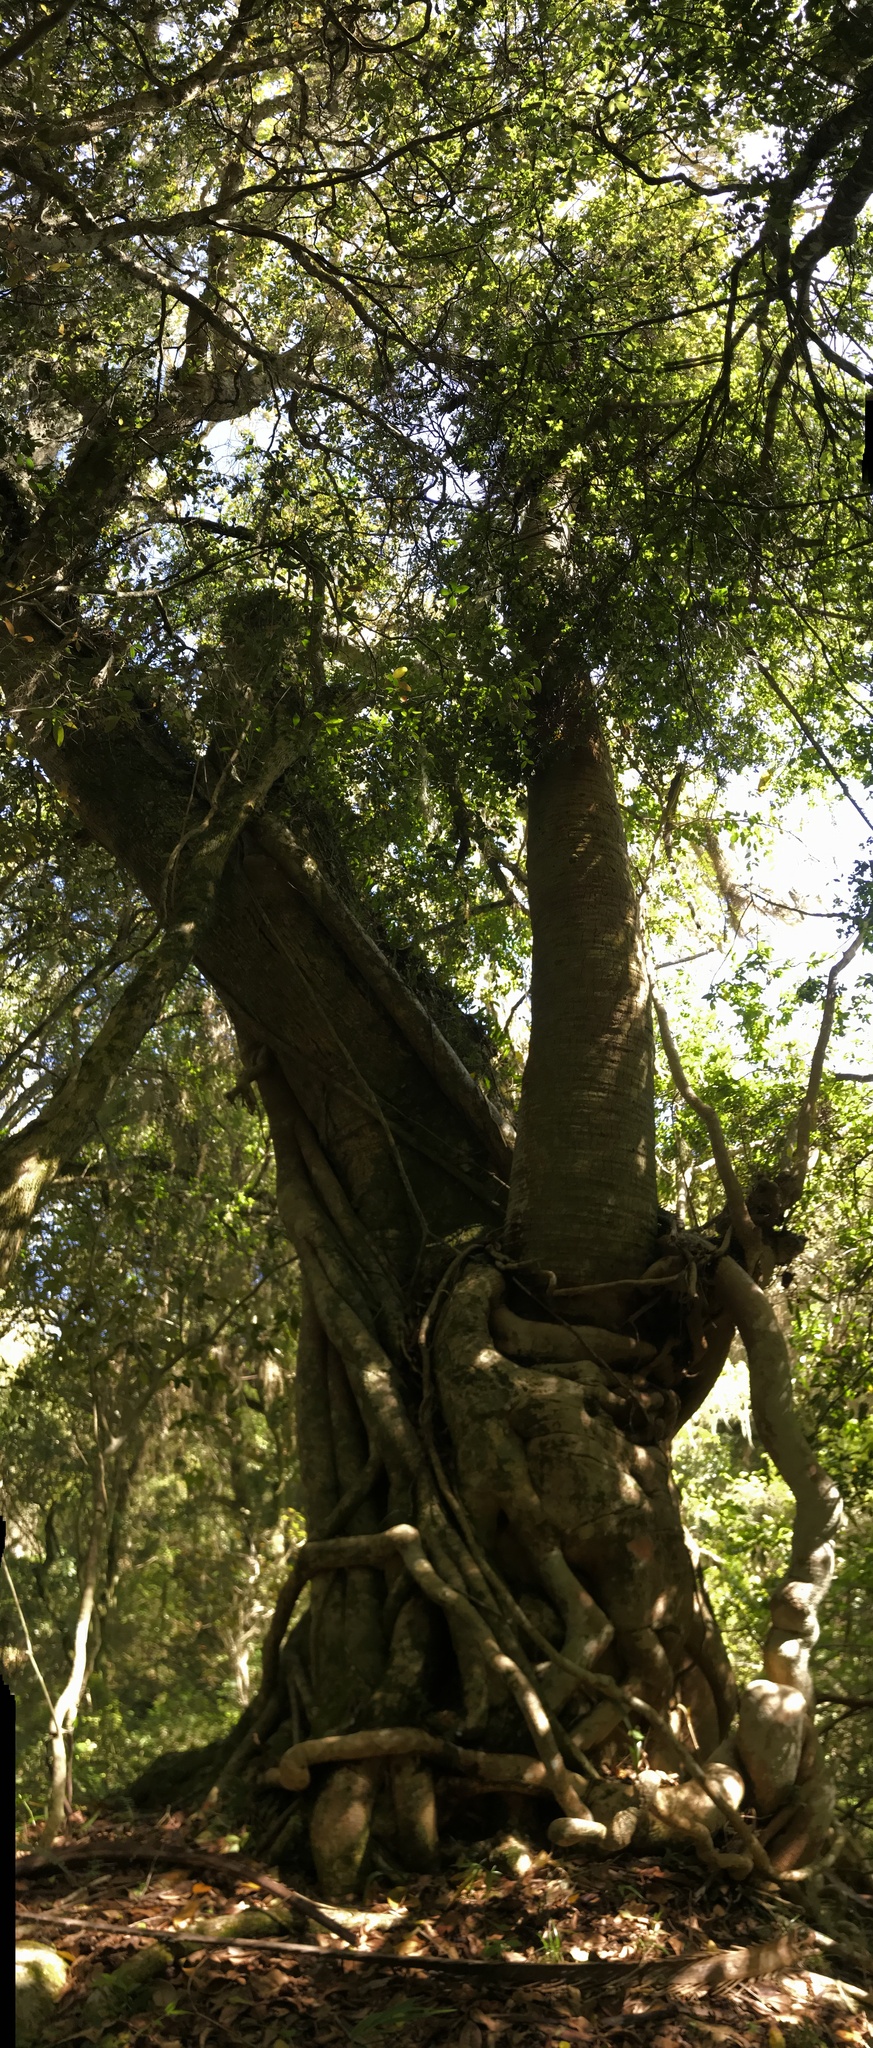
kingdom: Plantae
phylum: Tracheophyta
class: Magnoliopsida
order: Rosales
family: Moraceae
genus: Ficus
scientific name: Ficus luschnathiana
